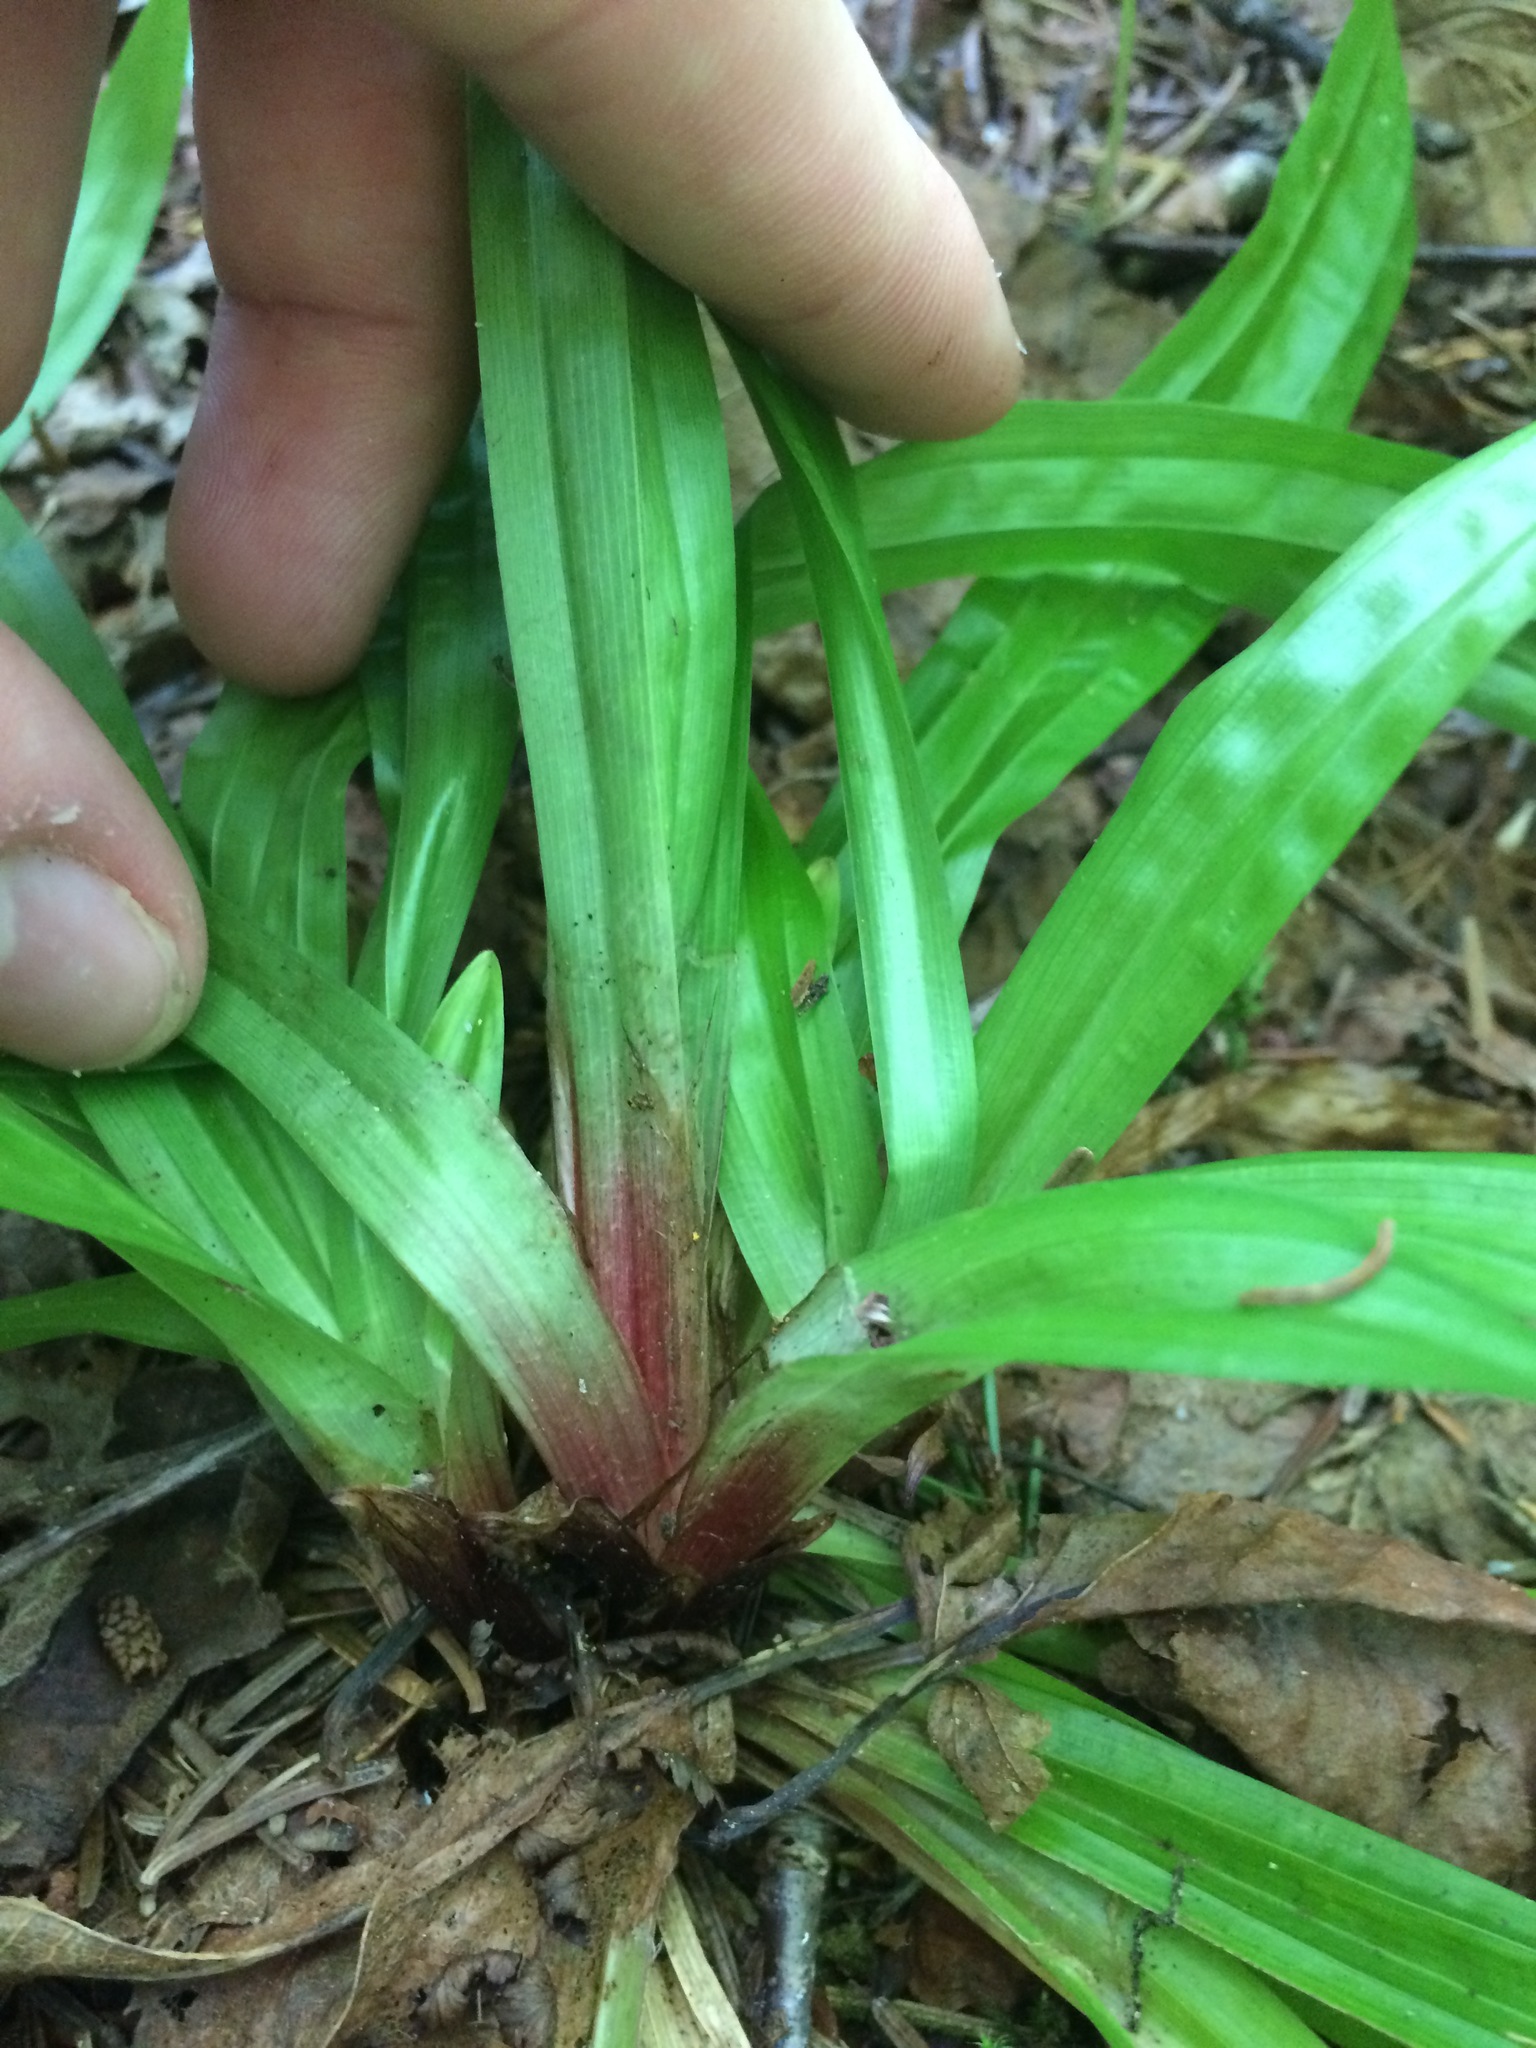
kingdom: Plantae
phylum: Tracheophyta
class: Liliopsida
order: Poales
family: Cyperaceae
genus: Carex
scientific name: Carex plantaginea
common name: Plantain-leaved sedge
